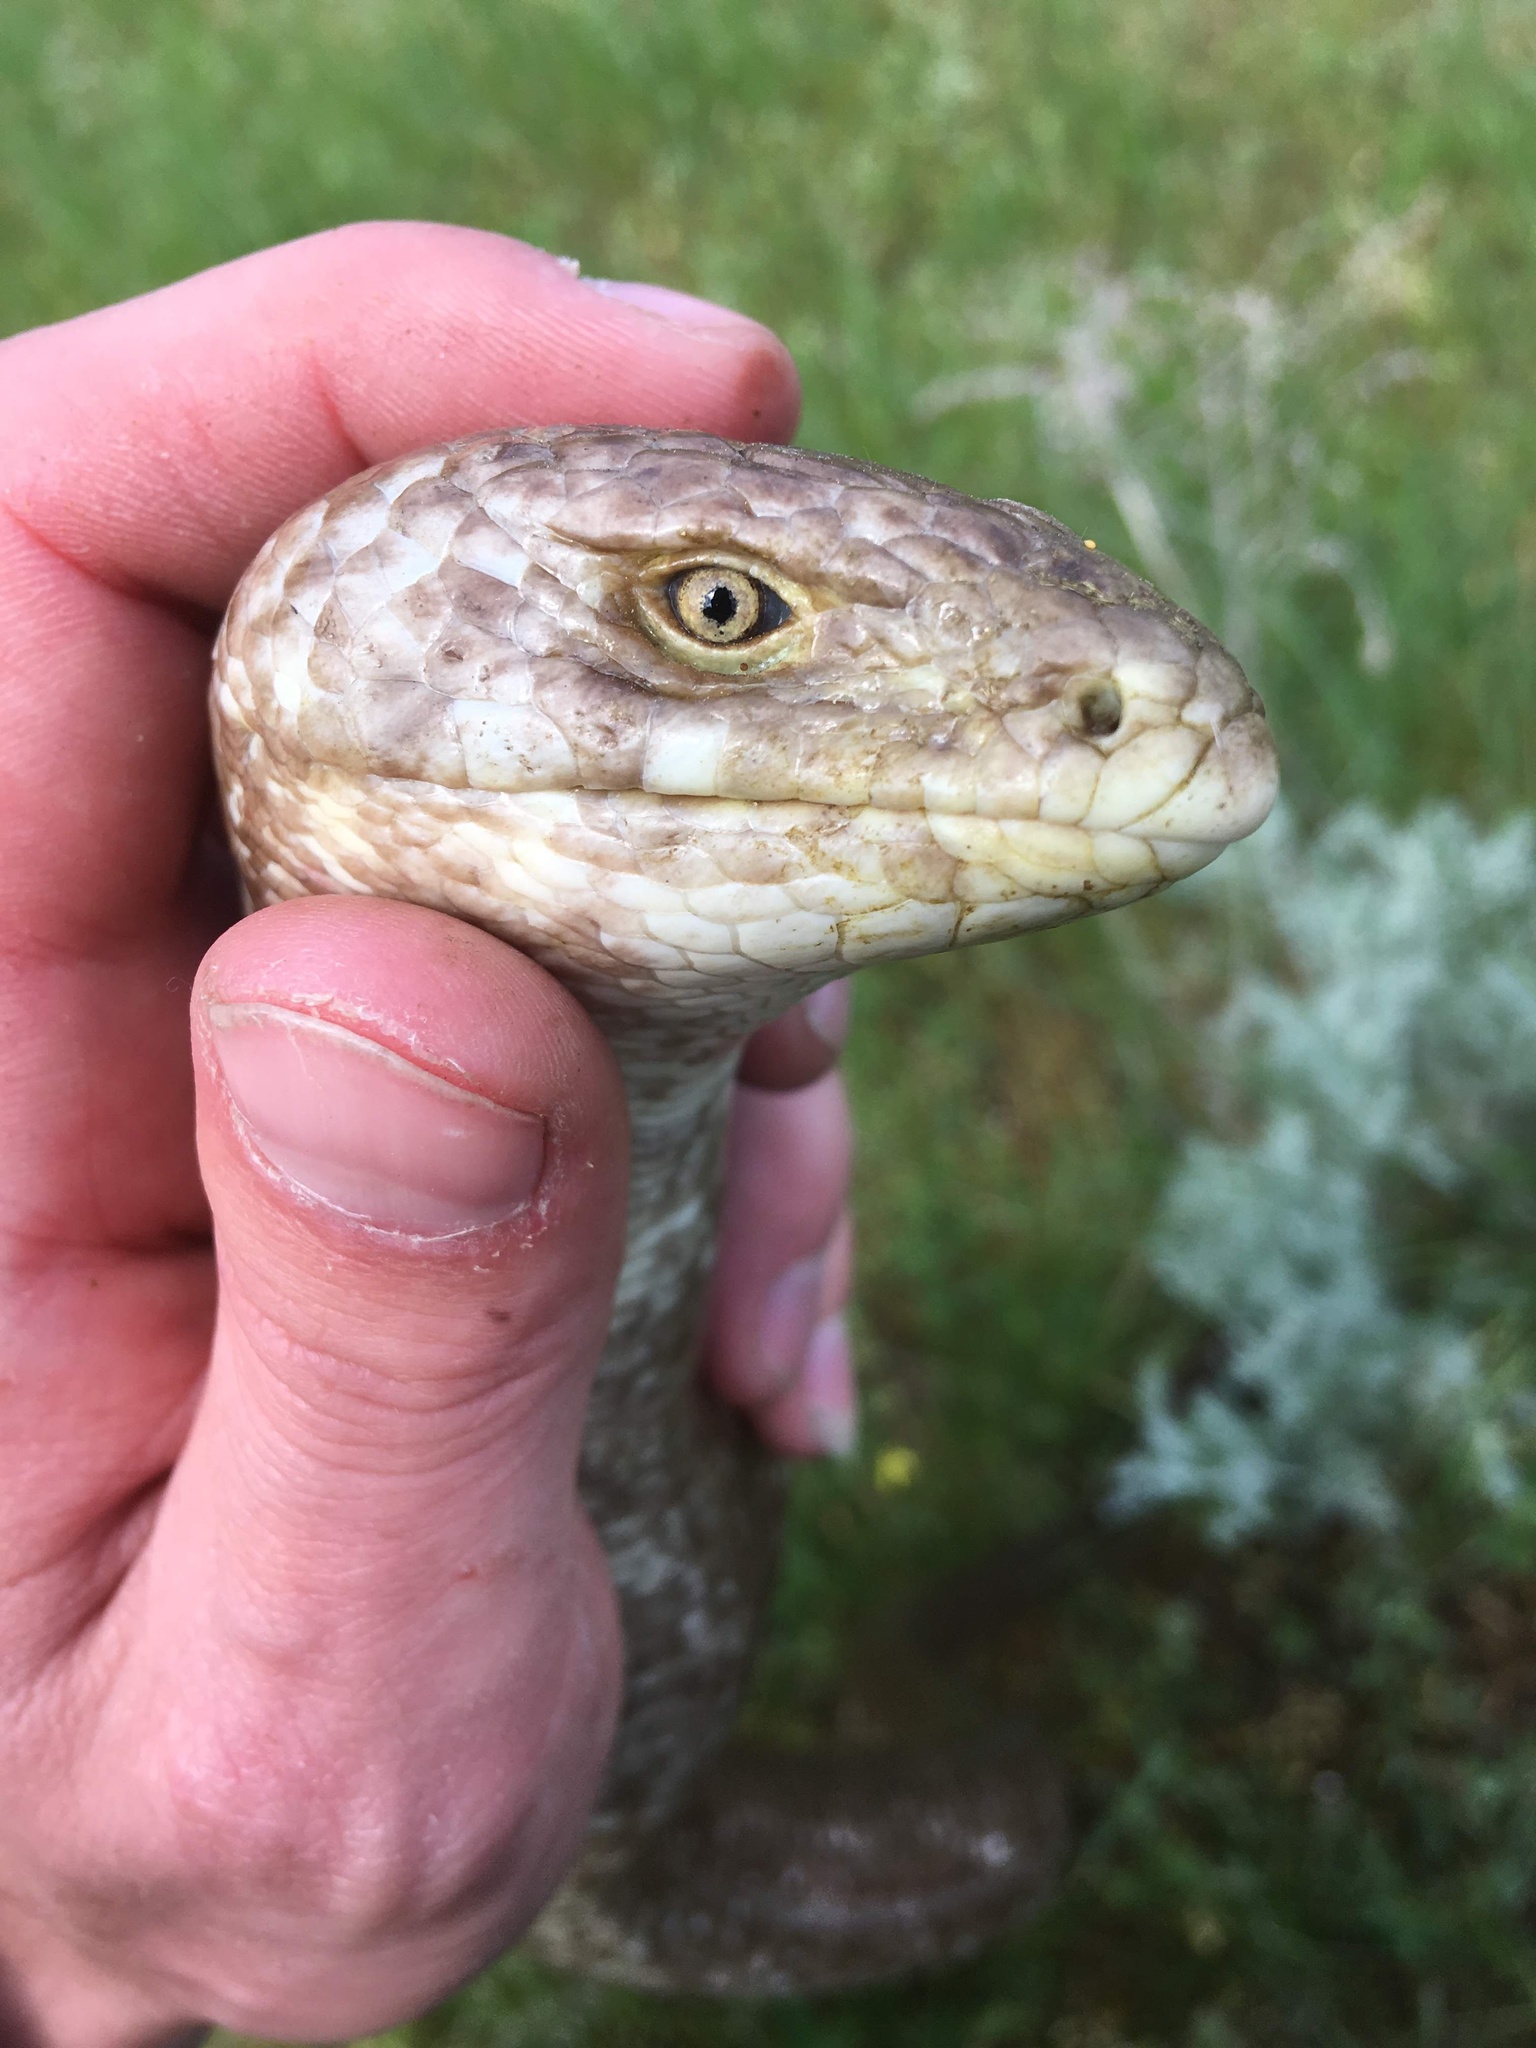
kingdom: Animalia
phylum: Chordata
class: Squamata
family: Anguidae
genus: Pseudopus
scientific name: Pseudopus apodus
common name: European glass lizard
